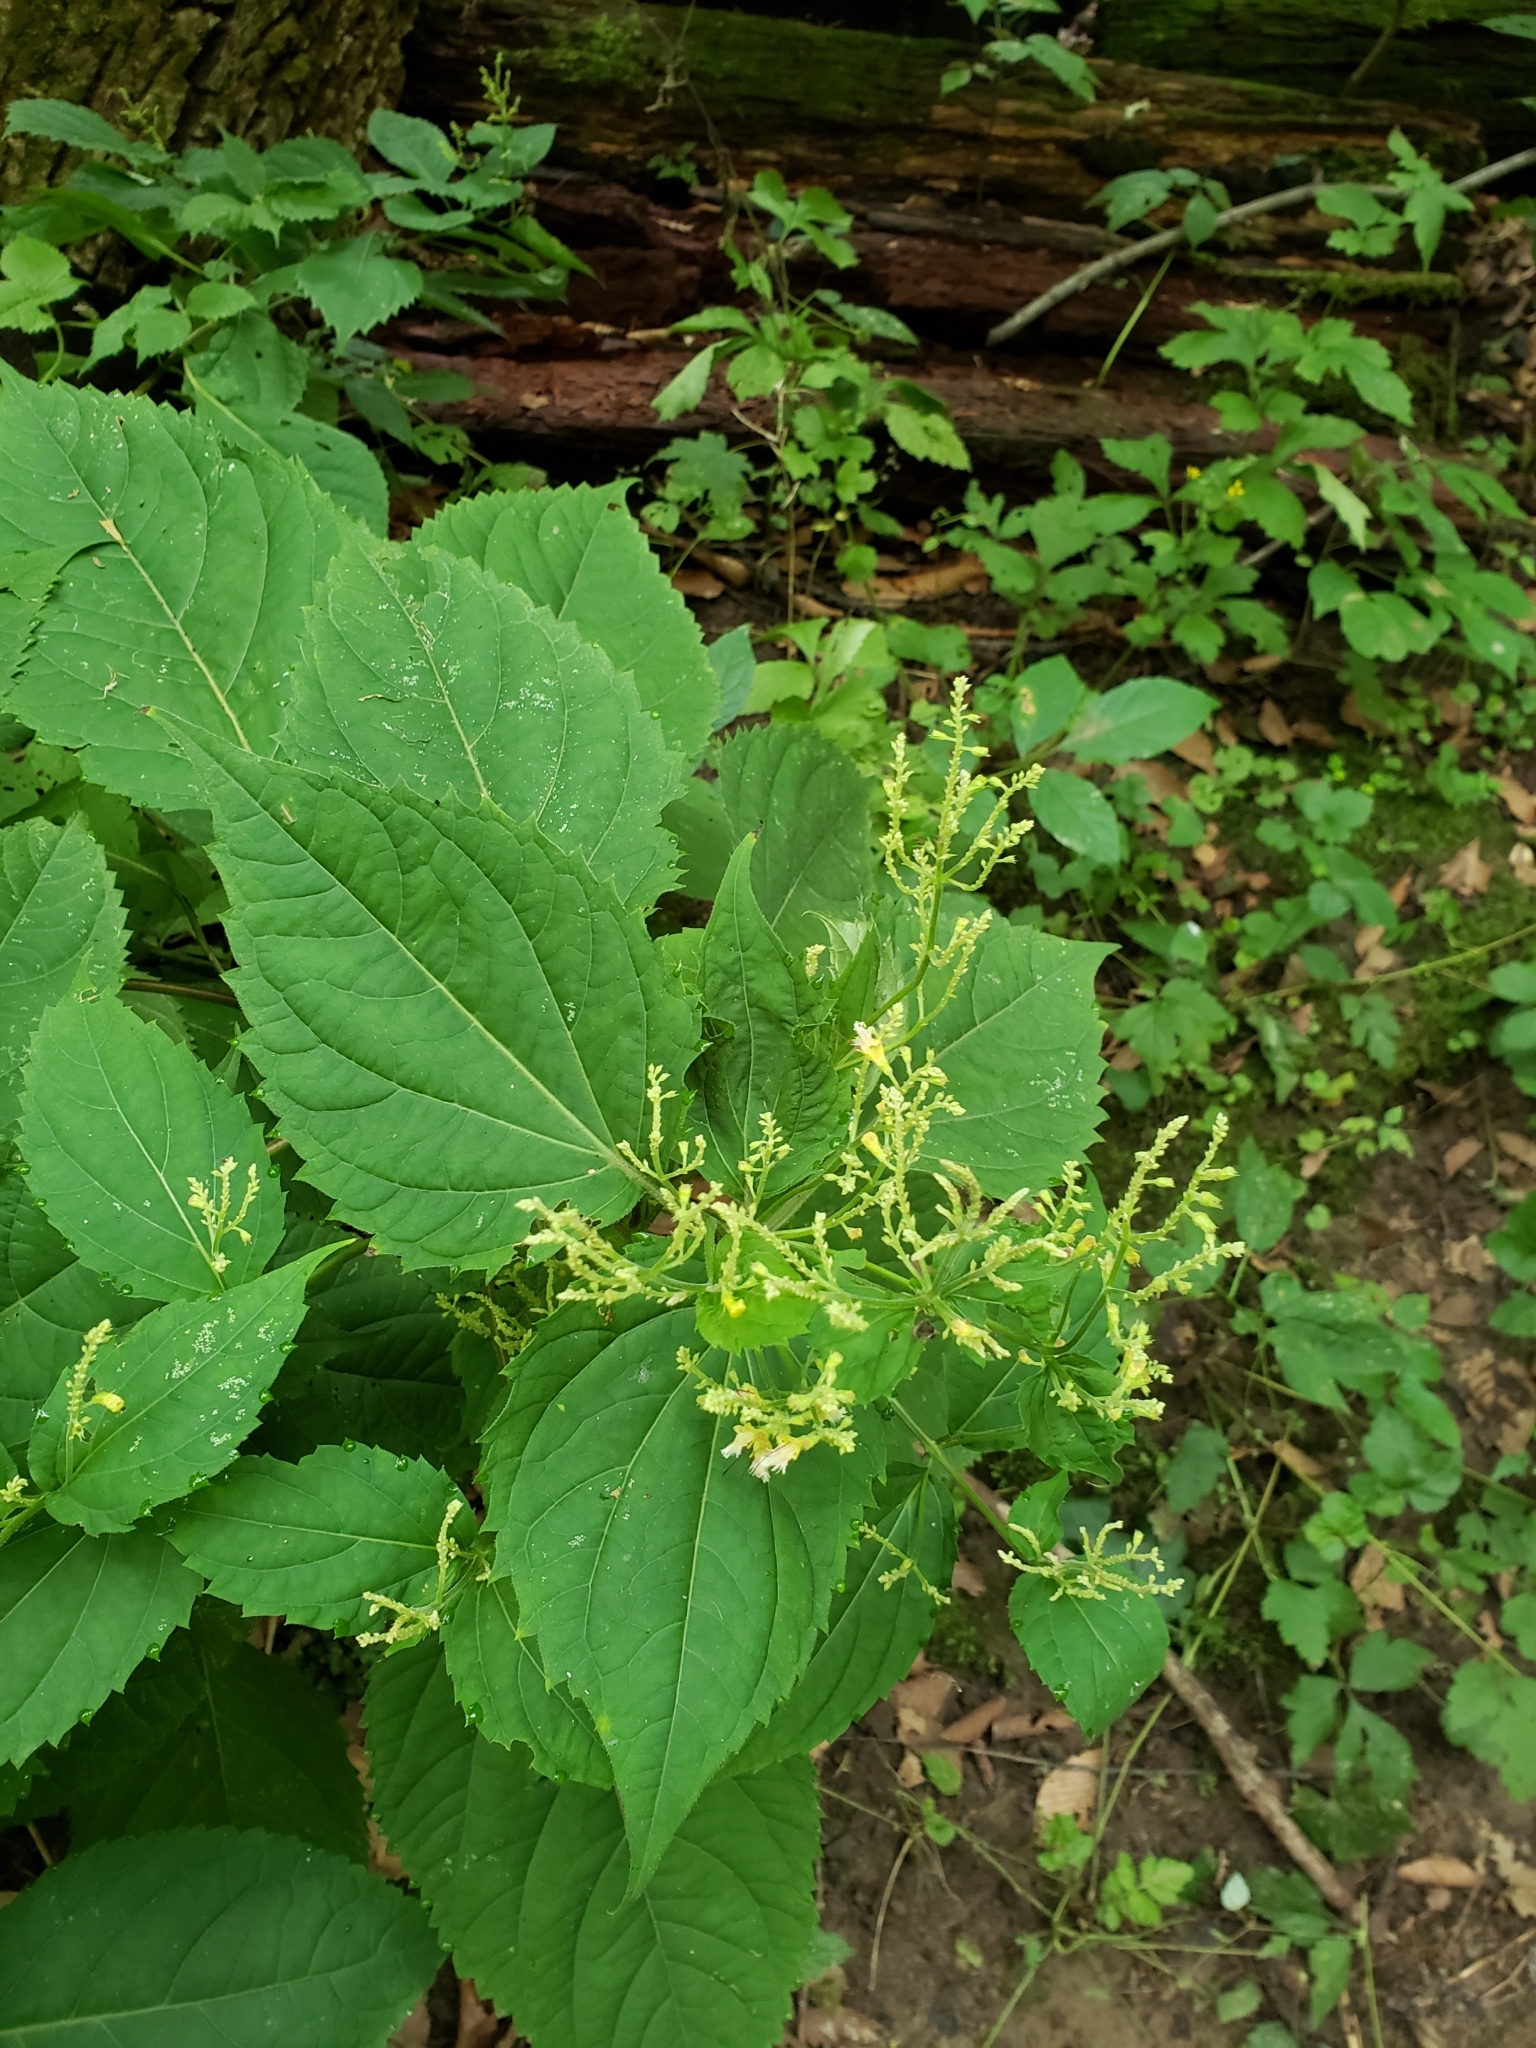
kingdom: Plantae
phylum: Tracheophyta
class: Magnoliopsida
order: Lamiales
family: Lamiaceae
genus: Collinsonia
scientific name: Collinsonia canadensis
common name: Northern horsebalm
